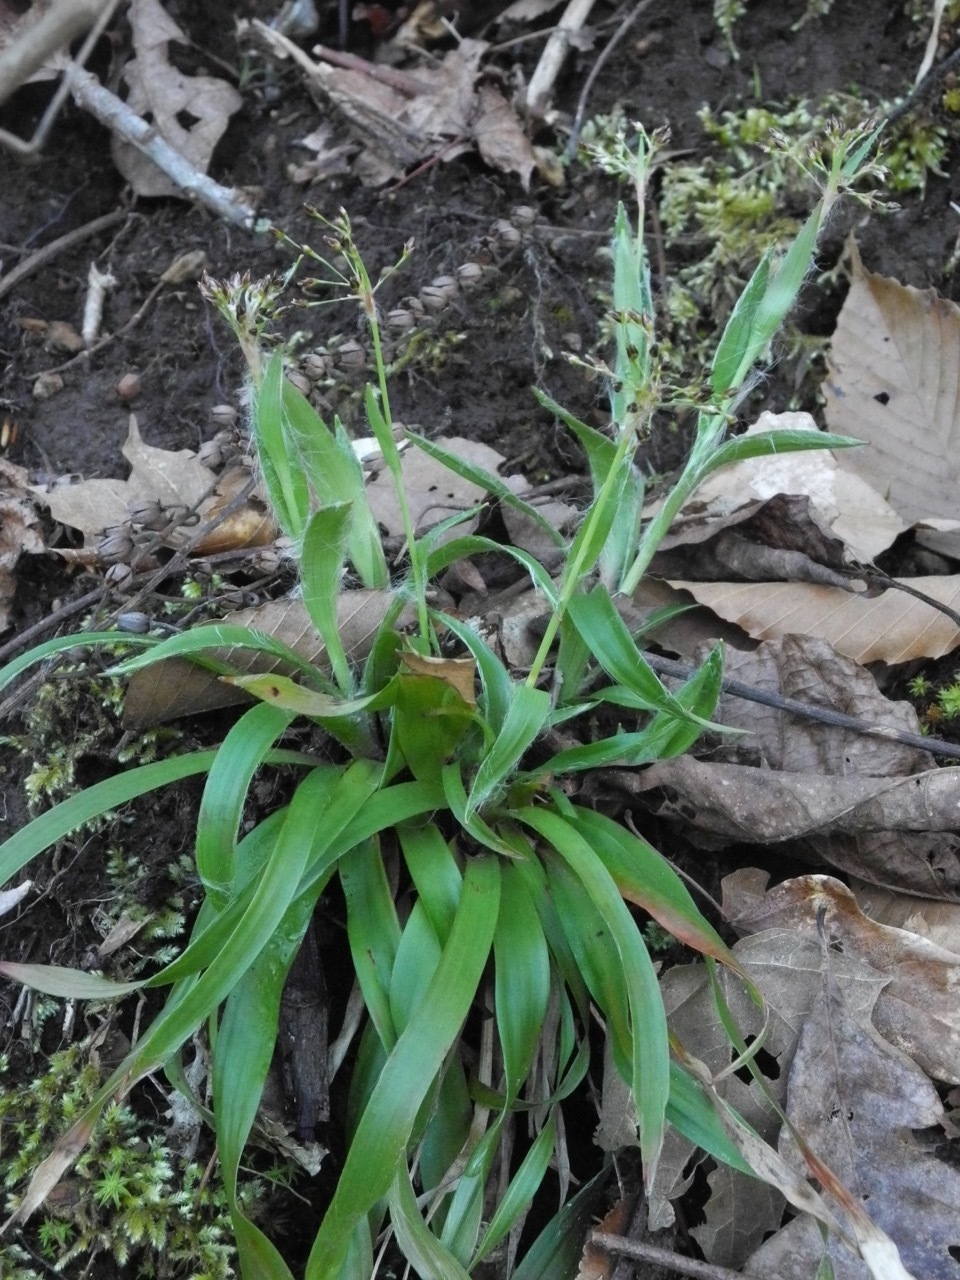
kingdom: Plantae
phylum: Tracheophyta
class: Liliopsida
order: Poales
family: Juncaceae
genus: Luzula
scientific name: Luzula acuminata
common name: Hairy woodrush
